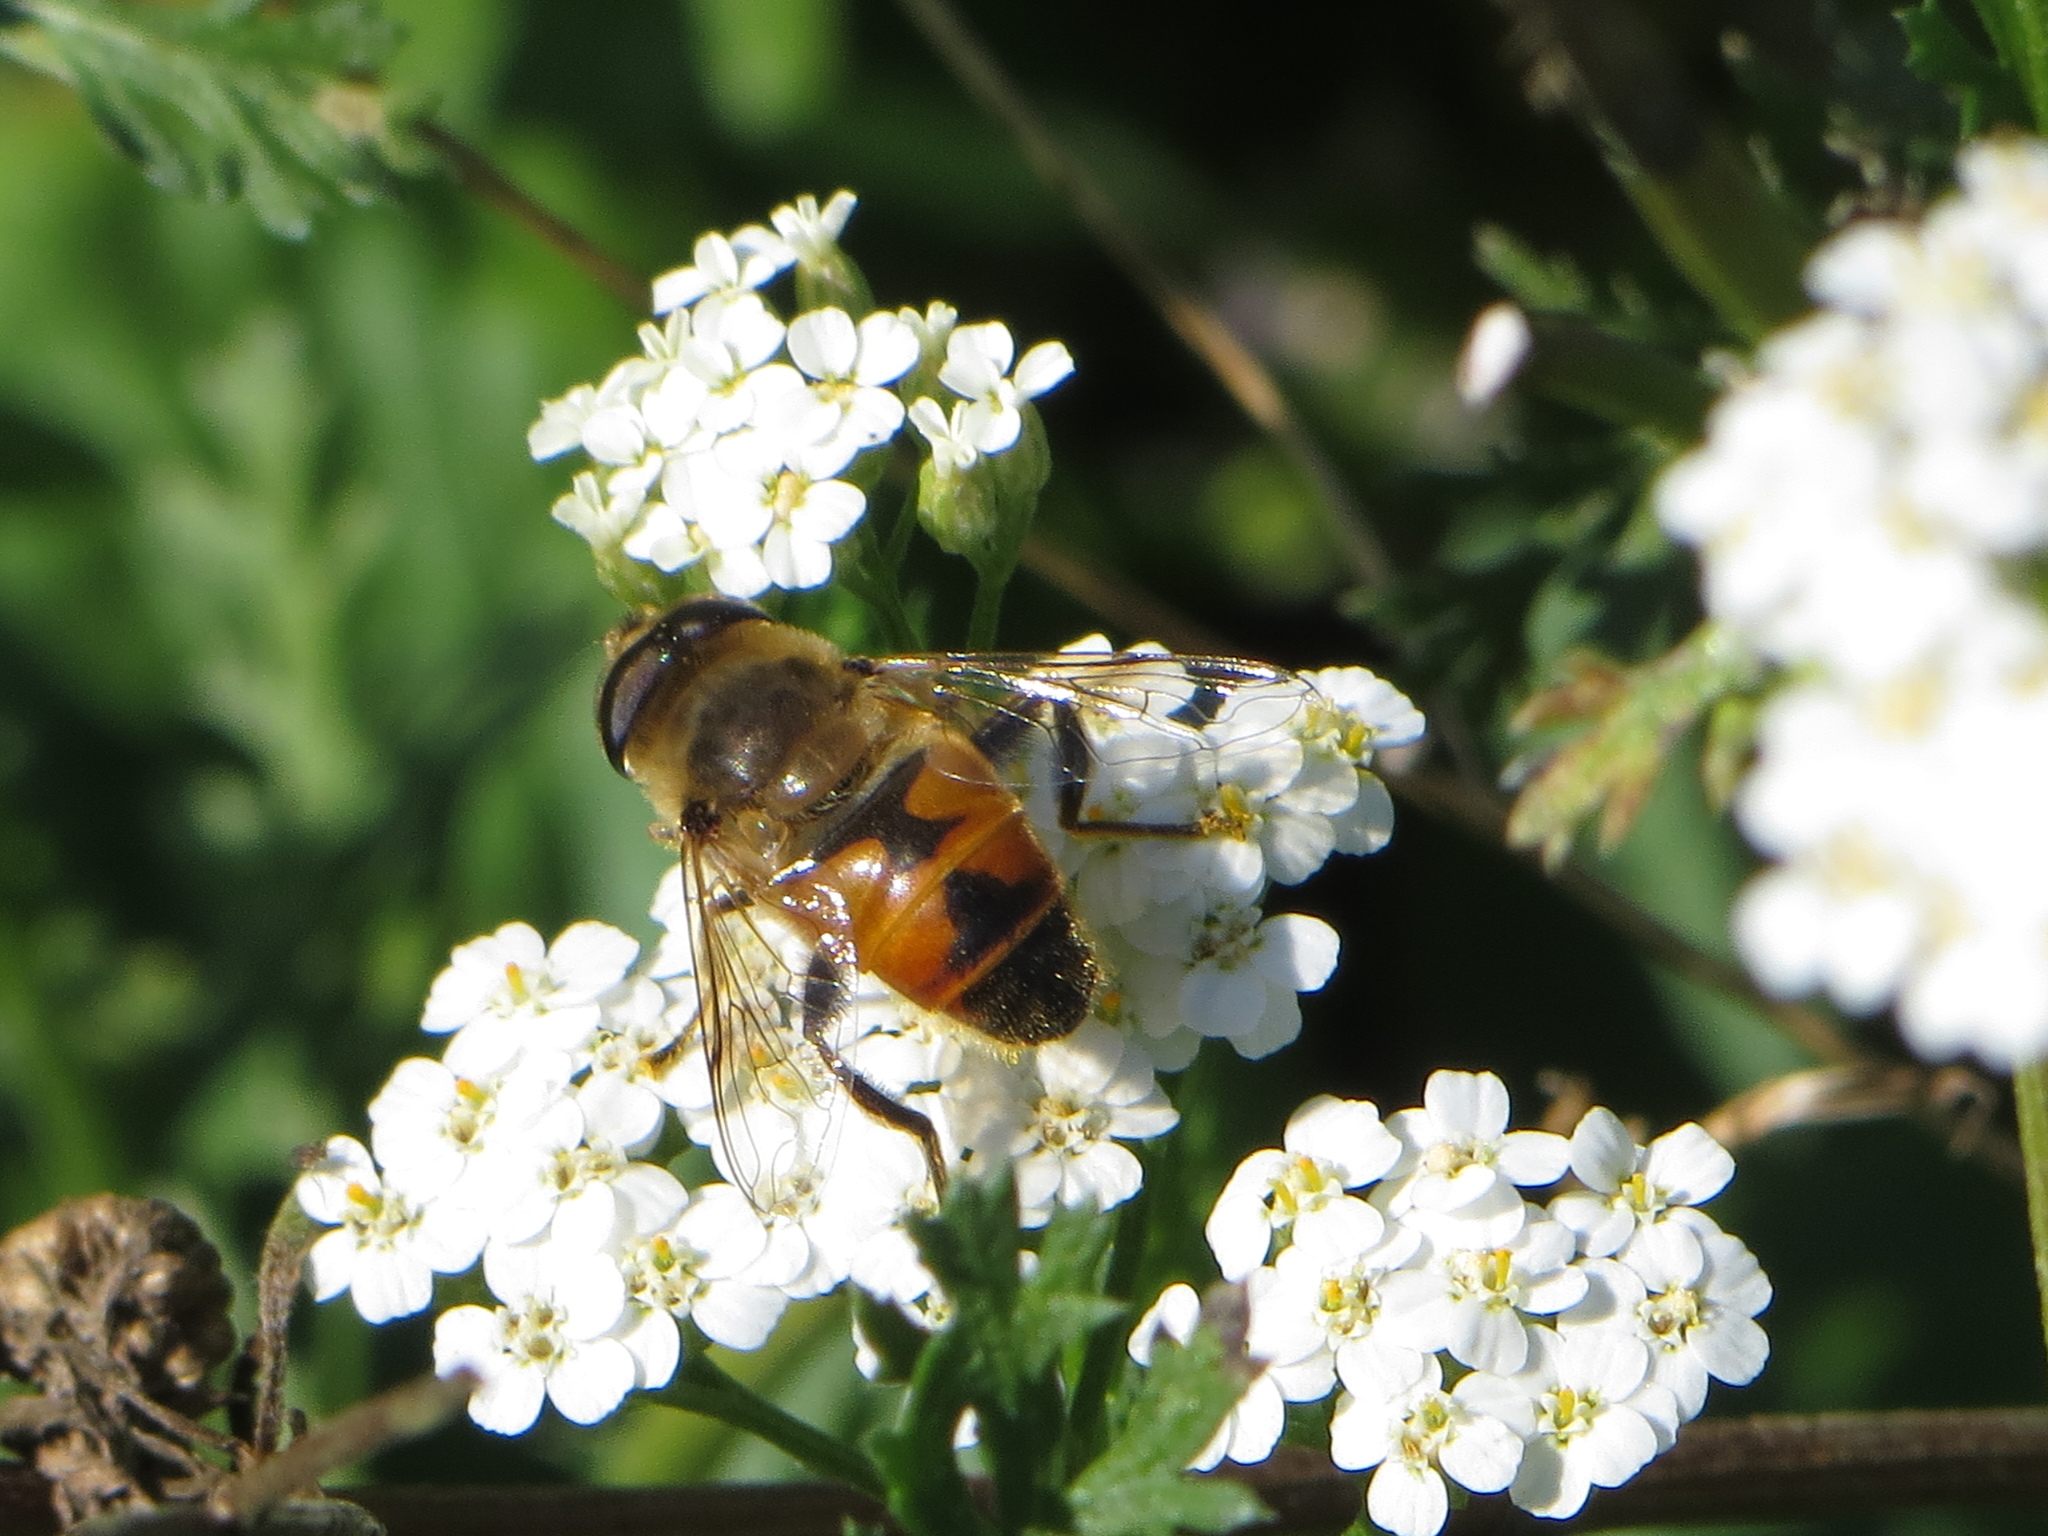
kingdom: Animalia
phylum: Arthropoda
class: Insecta
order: Diptera
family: Syrphidae
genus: Eristalis
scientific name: Eristalis tenax
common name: Drone fly
